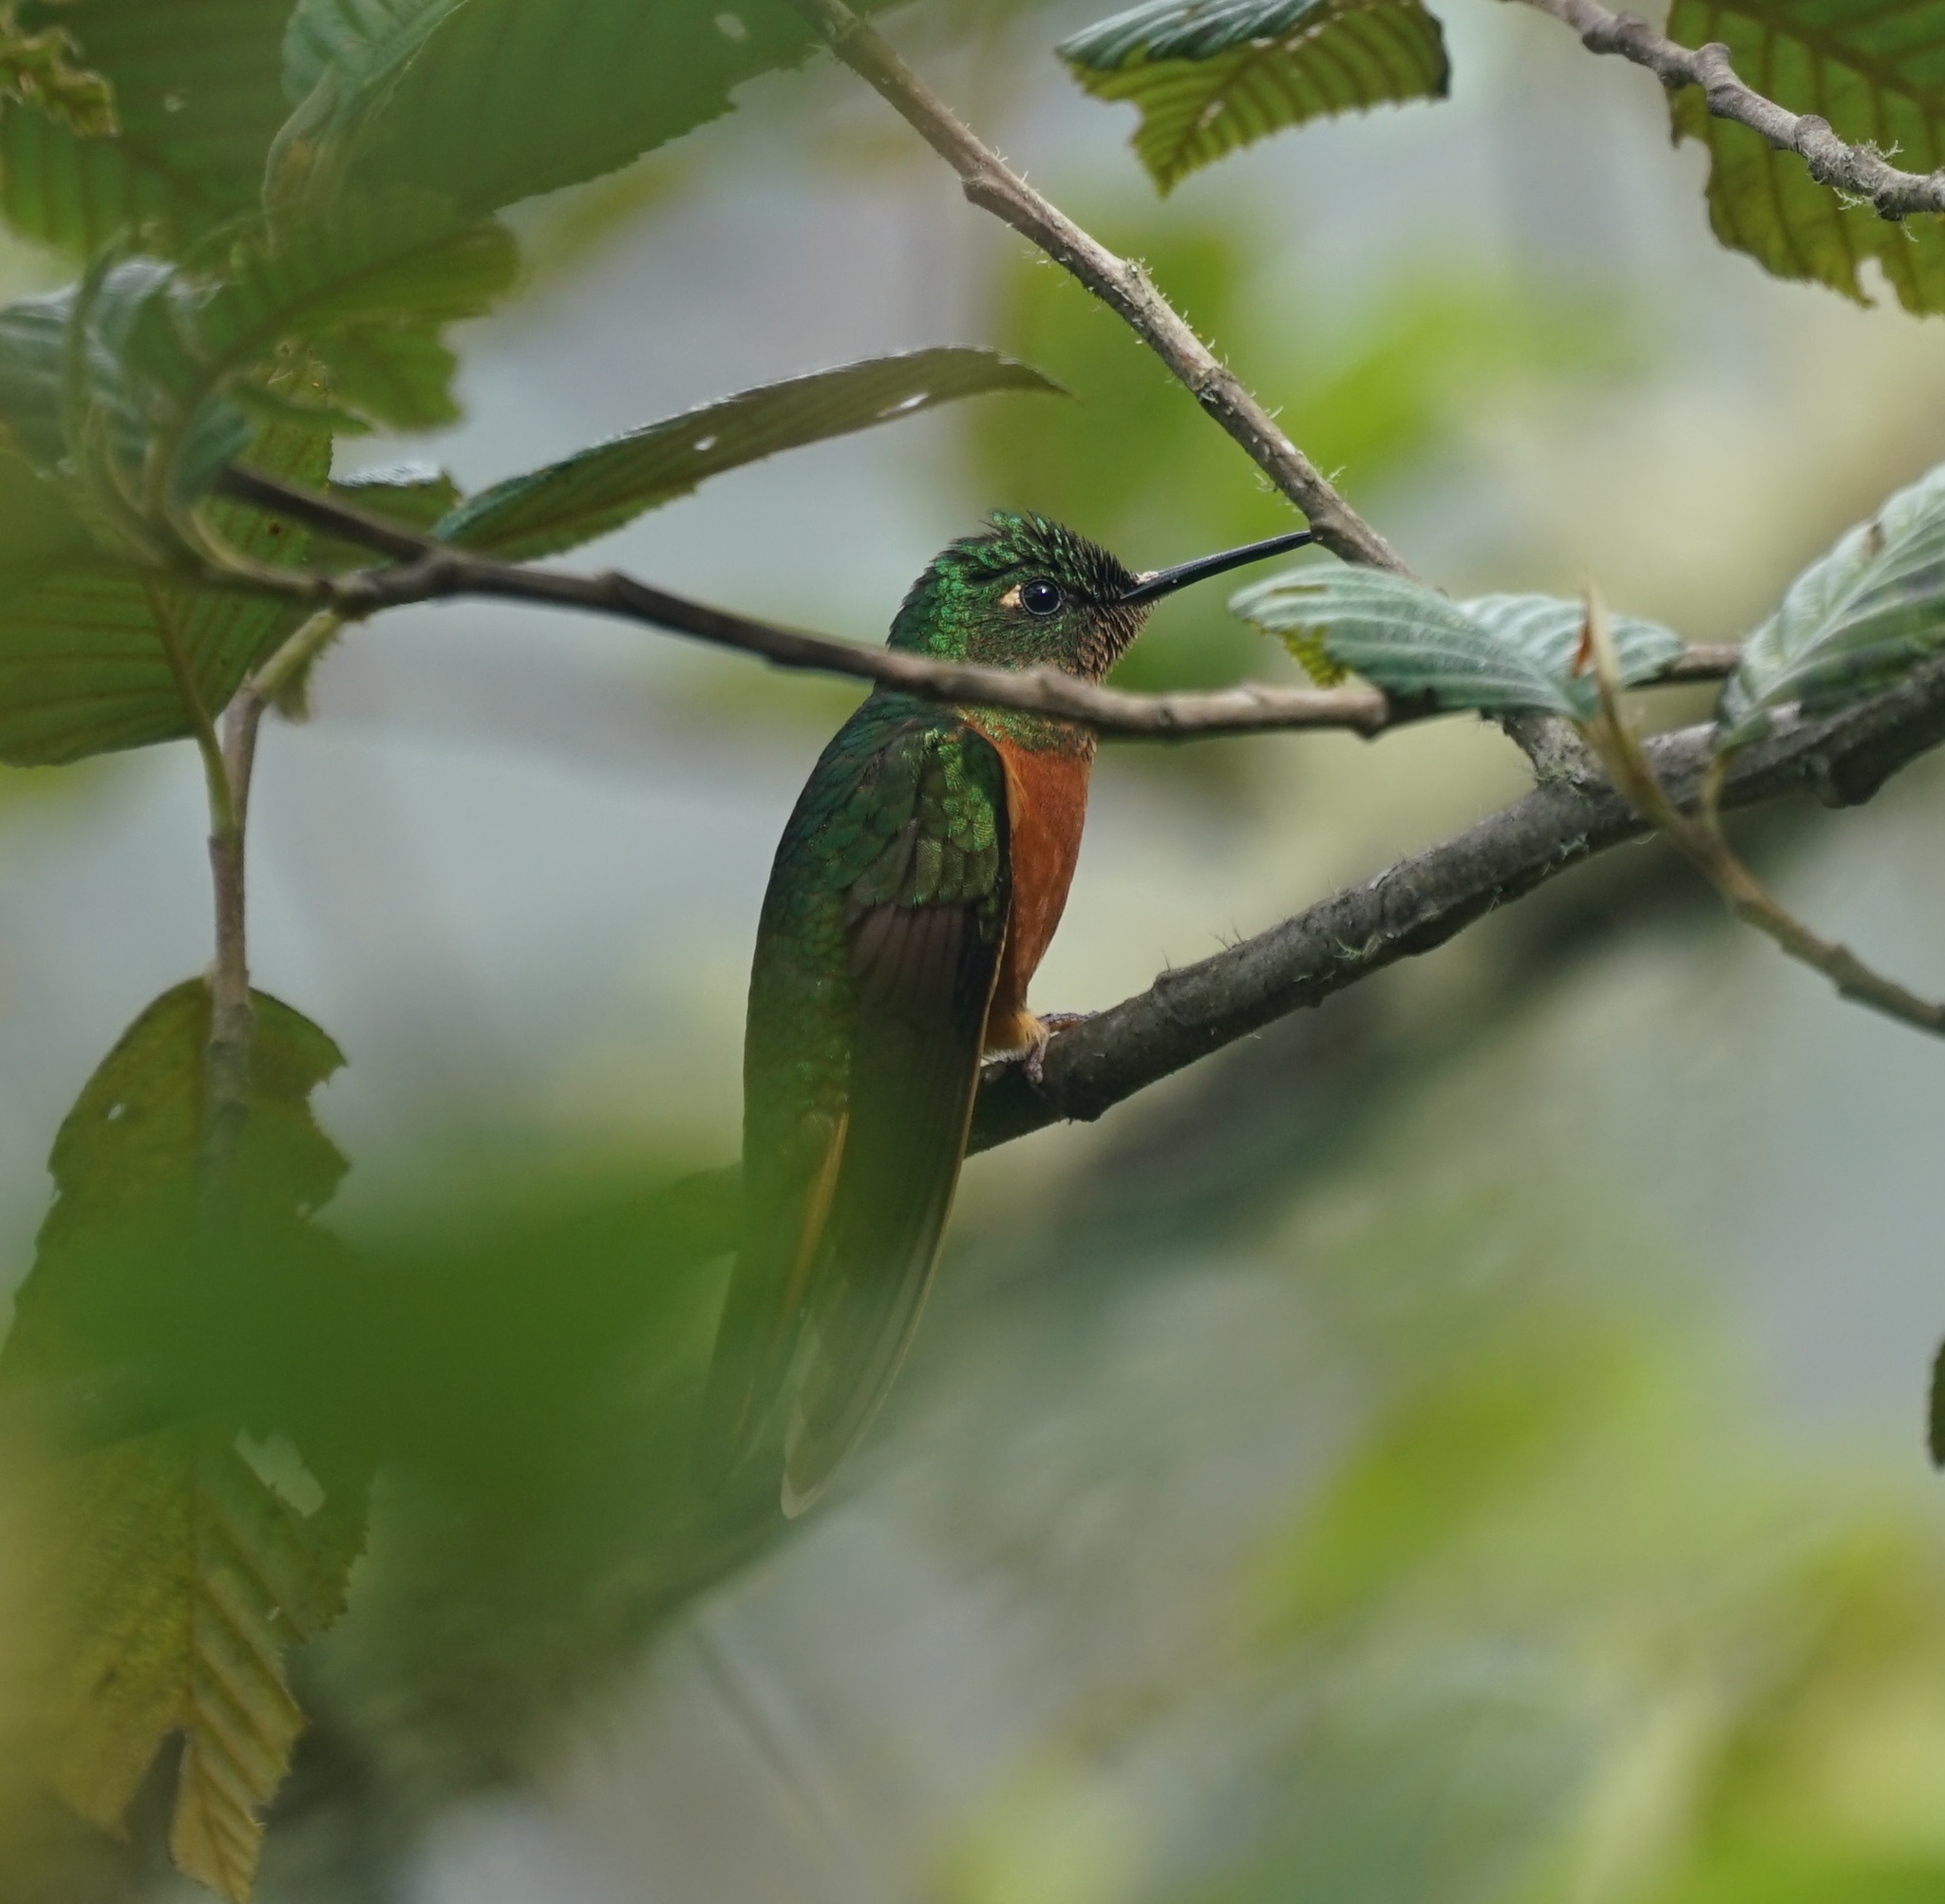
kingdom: Animalia
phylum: Chordata
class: Aves
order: Apodiformes
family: Trochilidae
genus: Boissonneaua
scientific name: Boissonneaua matthewsii
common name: Chestnut-breasted coronet
